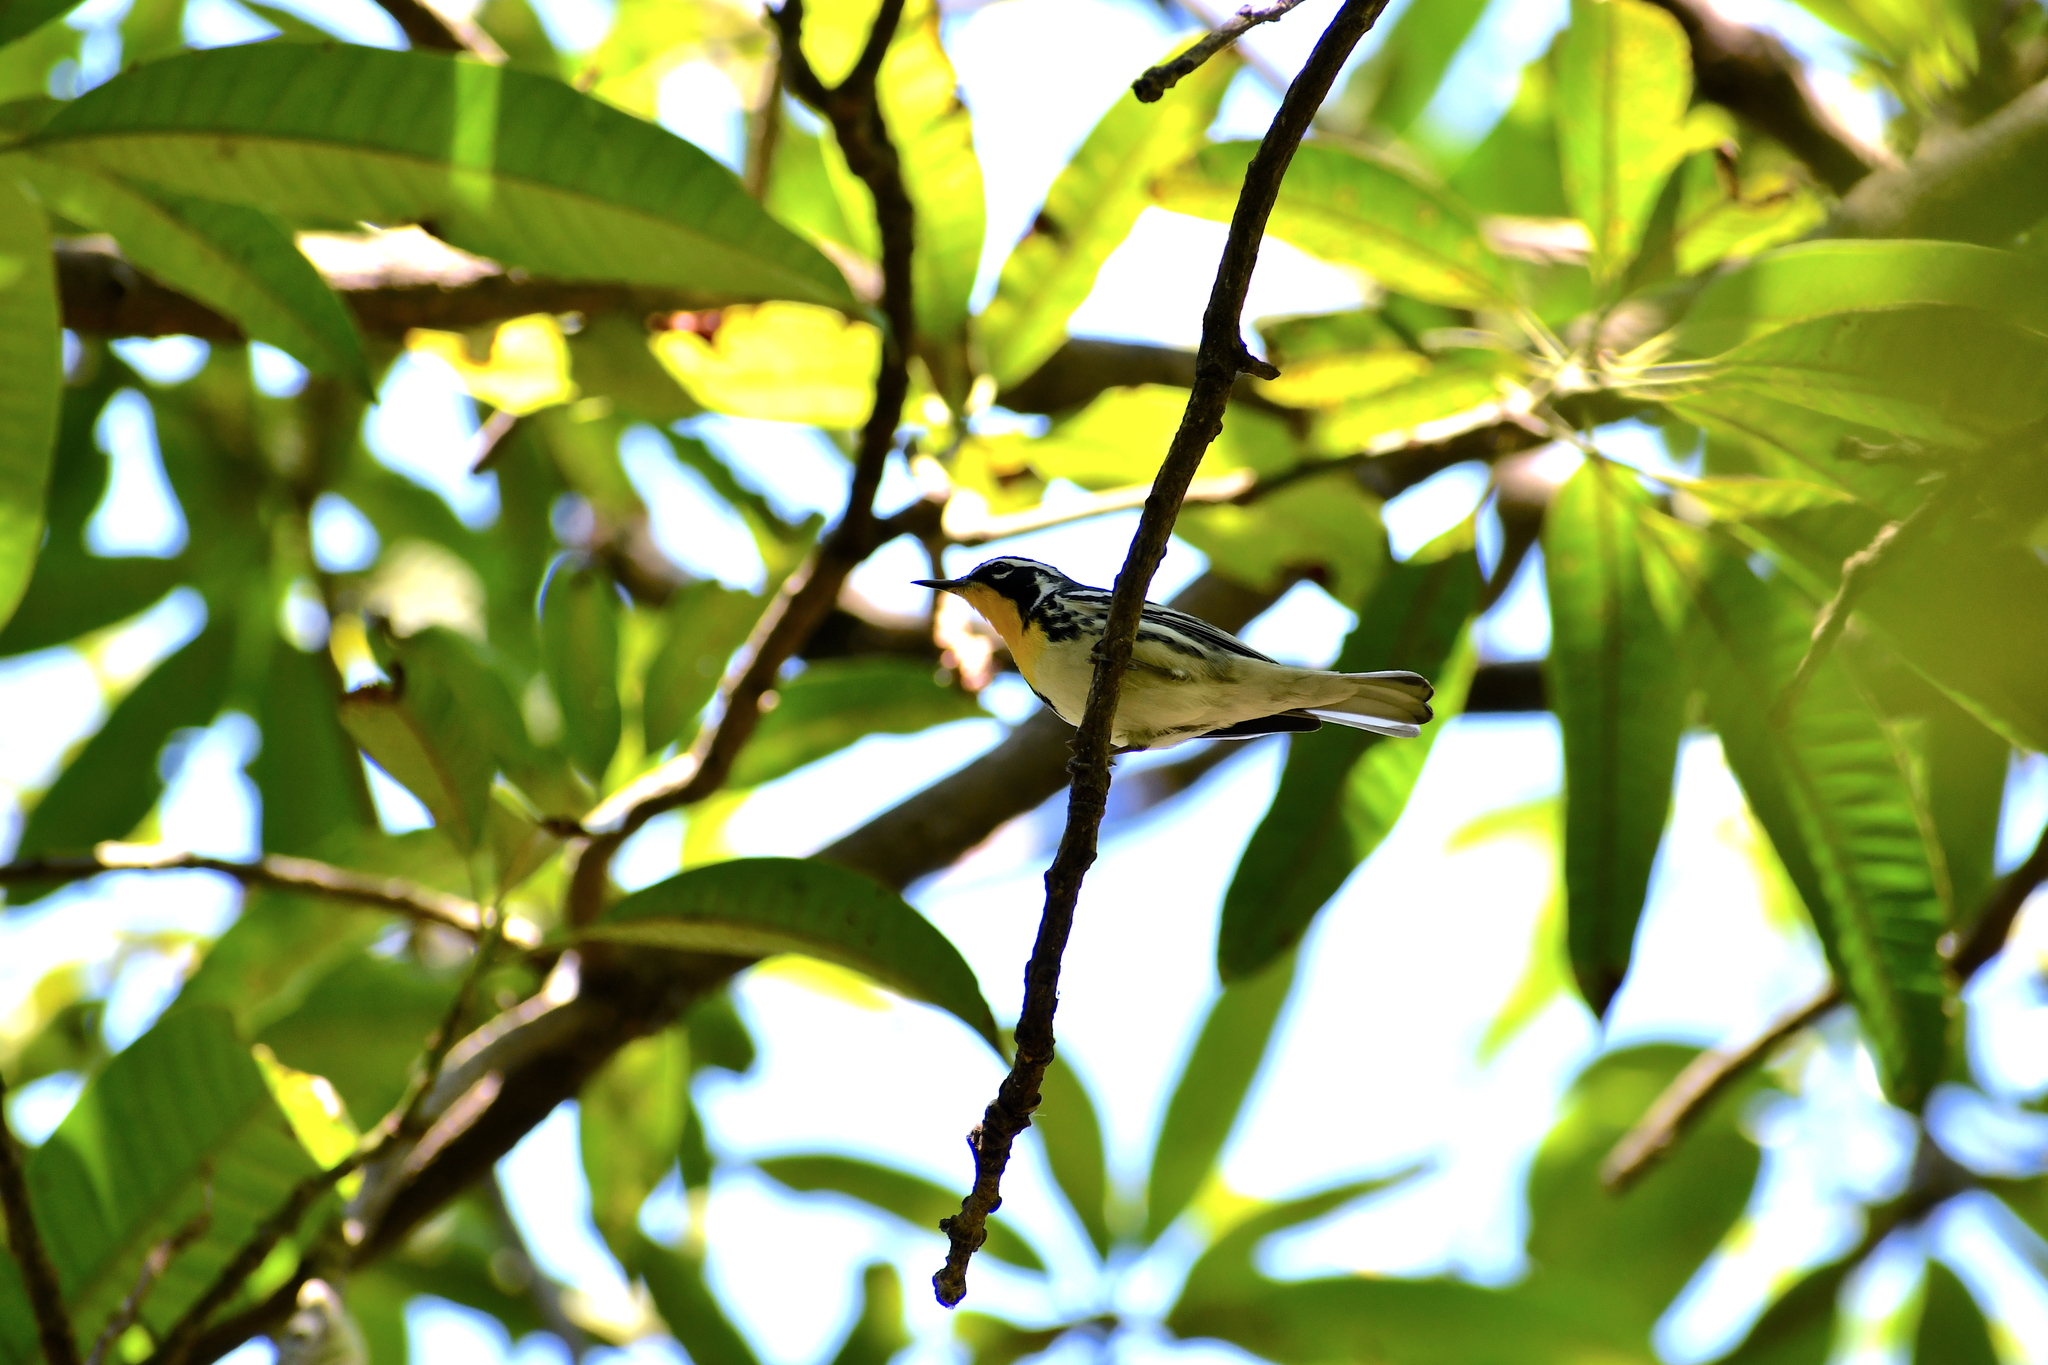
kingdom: Animalia
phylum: Chordata
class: Aves
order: Passeriformes
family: Parulidae
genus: Setophaga
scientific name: Setophaga dominica
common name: Yellow-throated warbler
